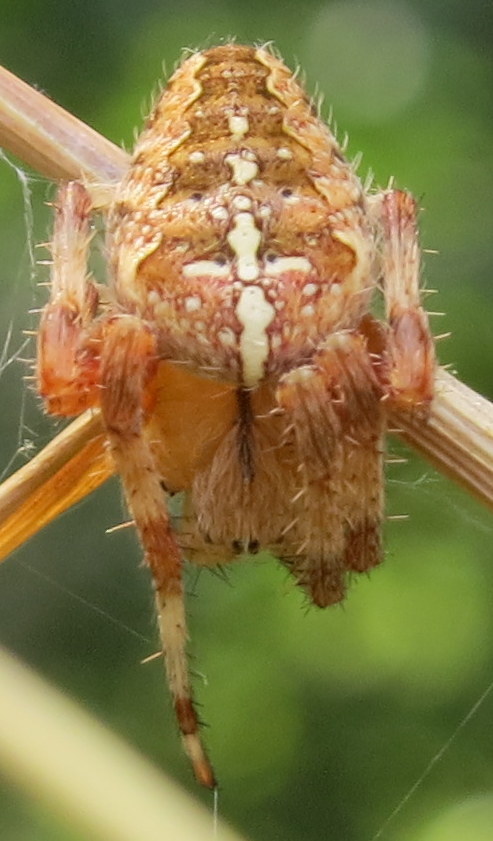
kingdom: Animalia
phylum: Arthropoda
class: Arachnida
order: Araneae
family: Araneidae
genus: Araneus
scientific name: Araneus diadematus
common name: Cross orbweaver
